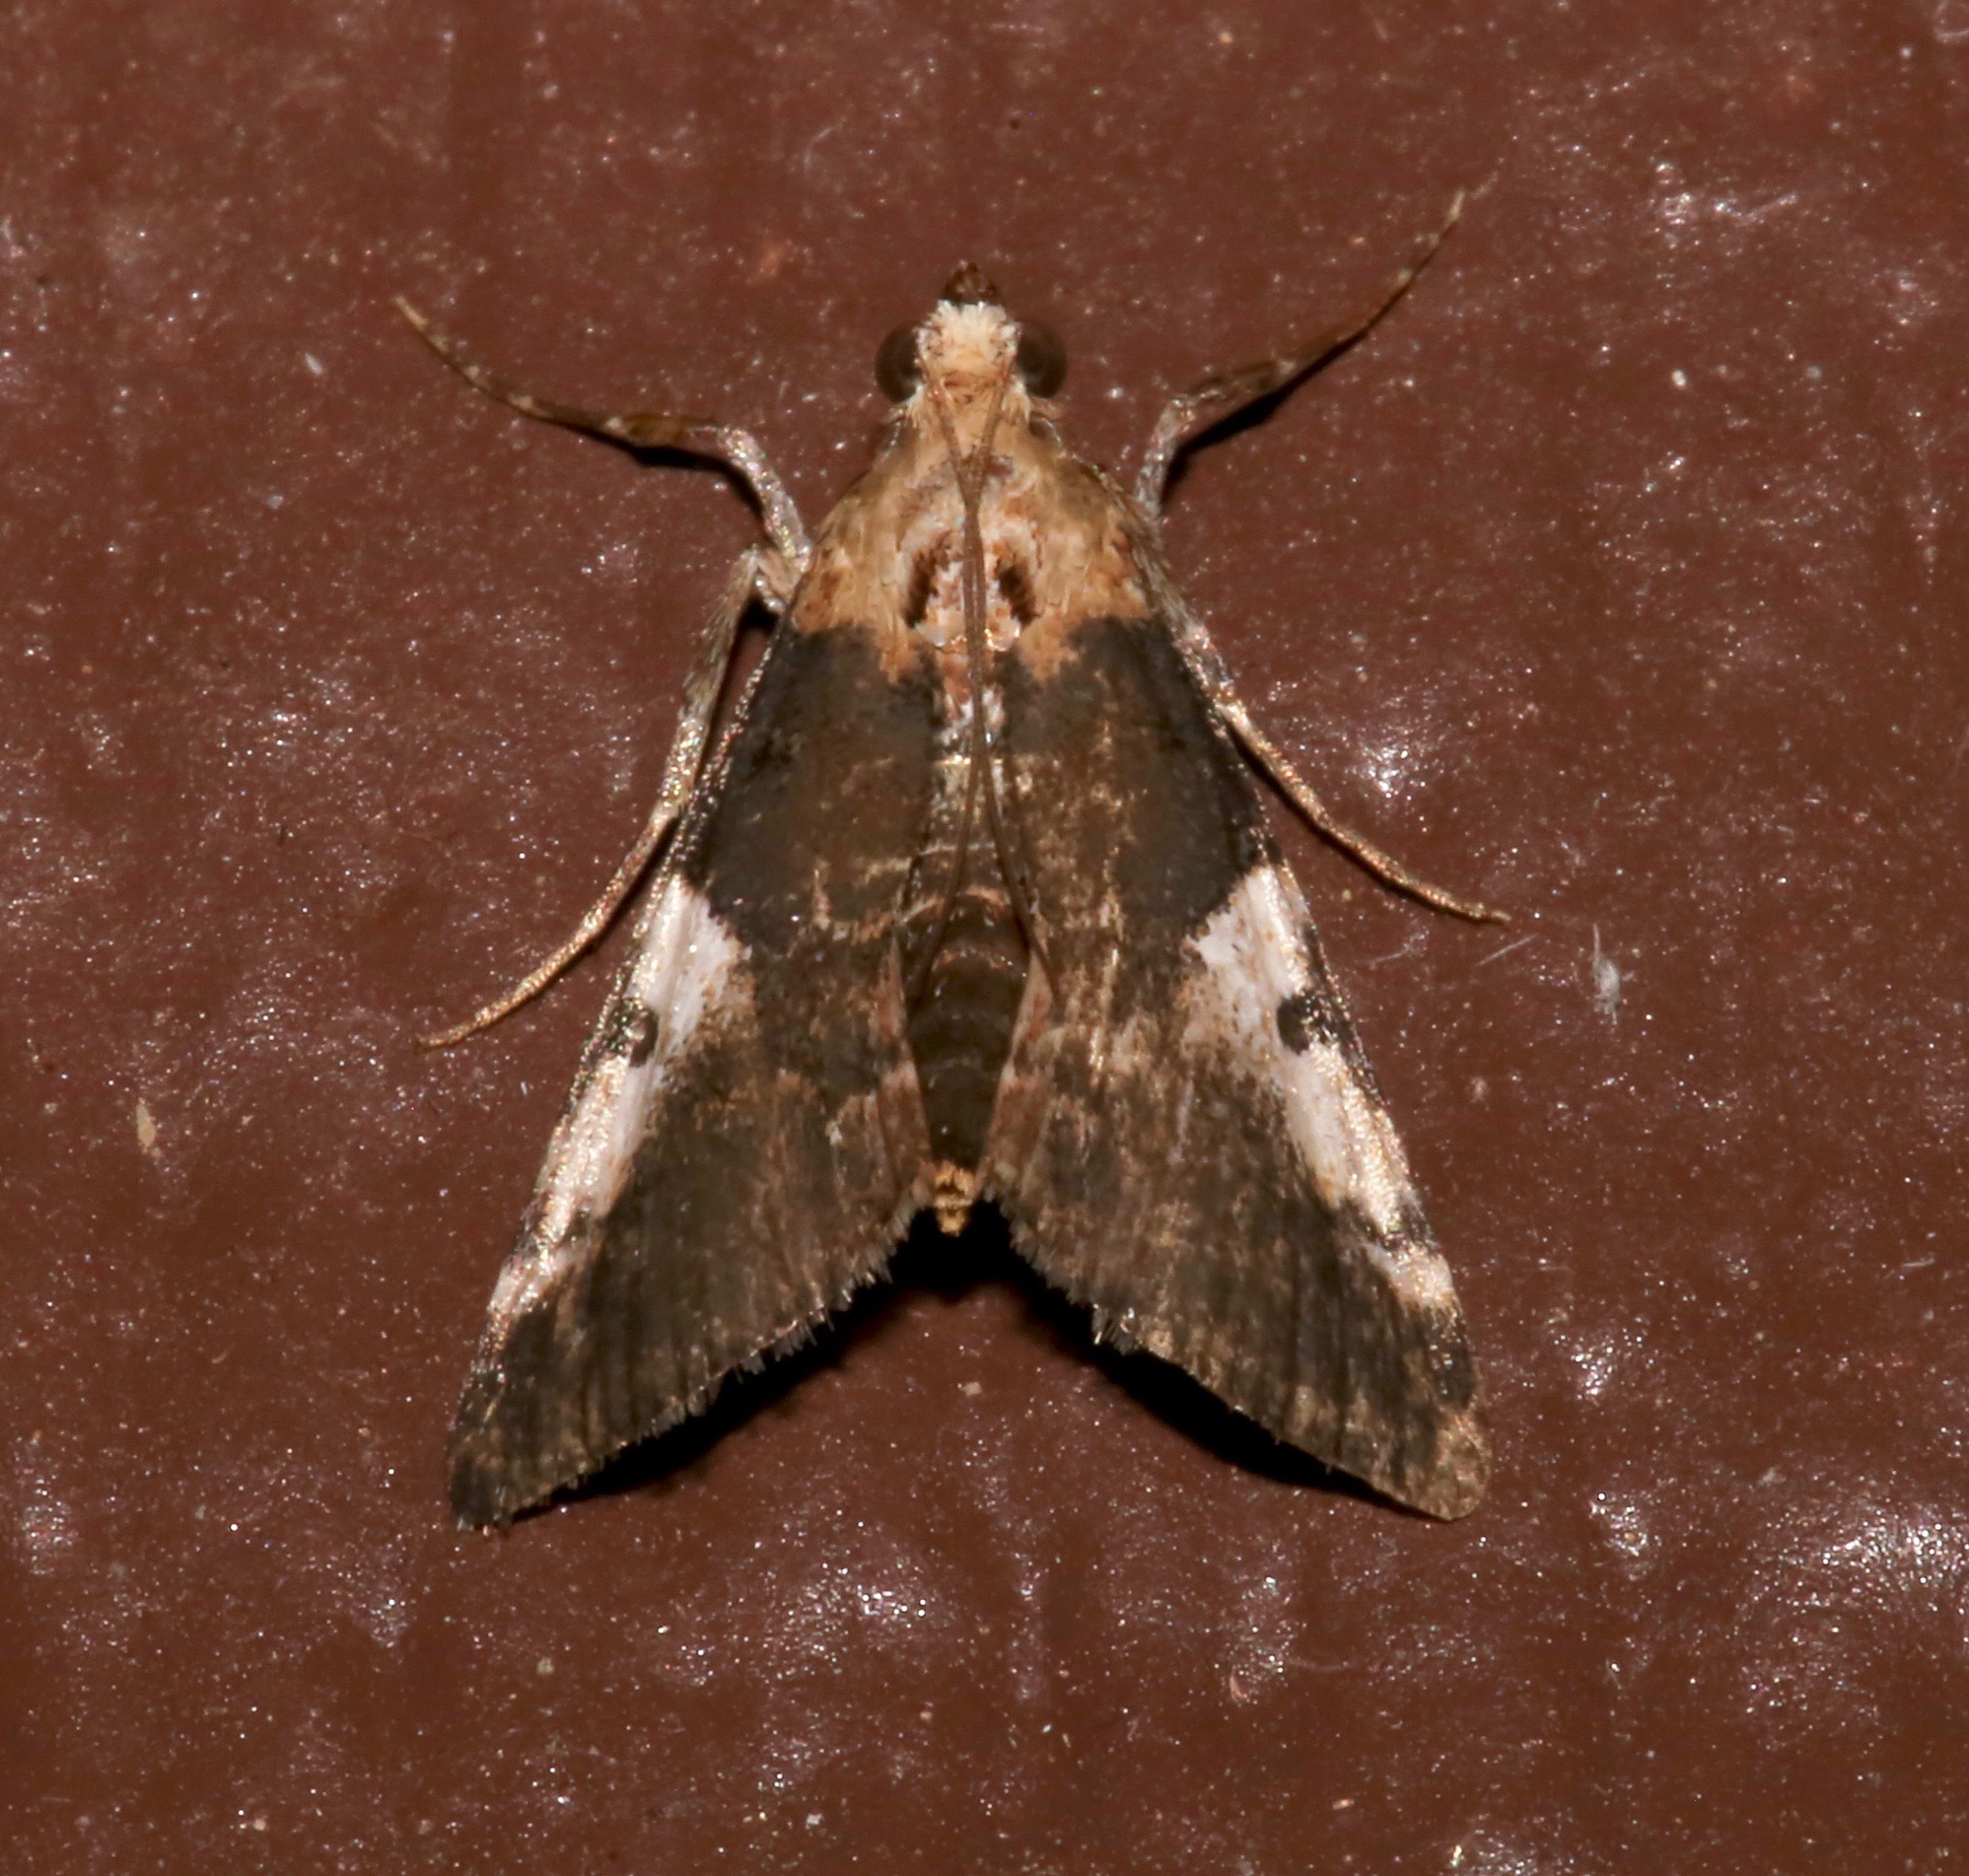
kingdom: Animalia
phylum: Arthropoda
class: Insecta
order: Lepidoptera
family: Pyralidae
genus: Milgithea
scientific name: Milgithea alboplagialis
